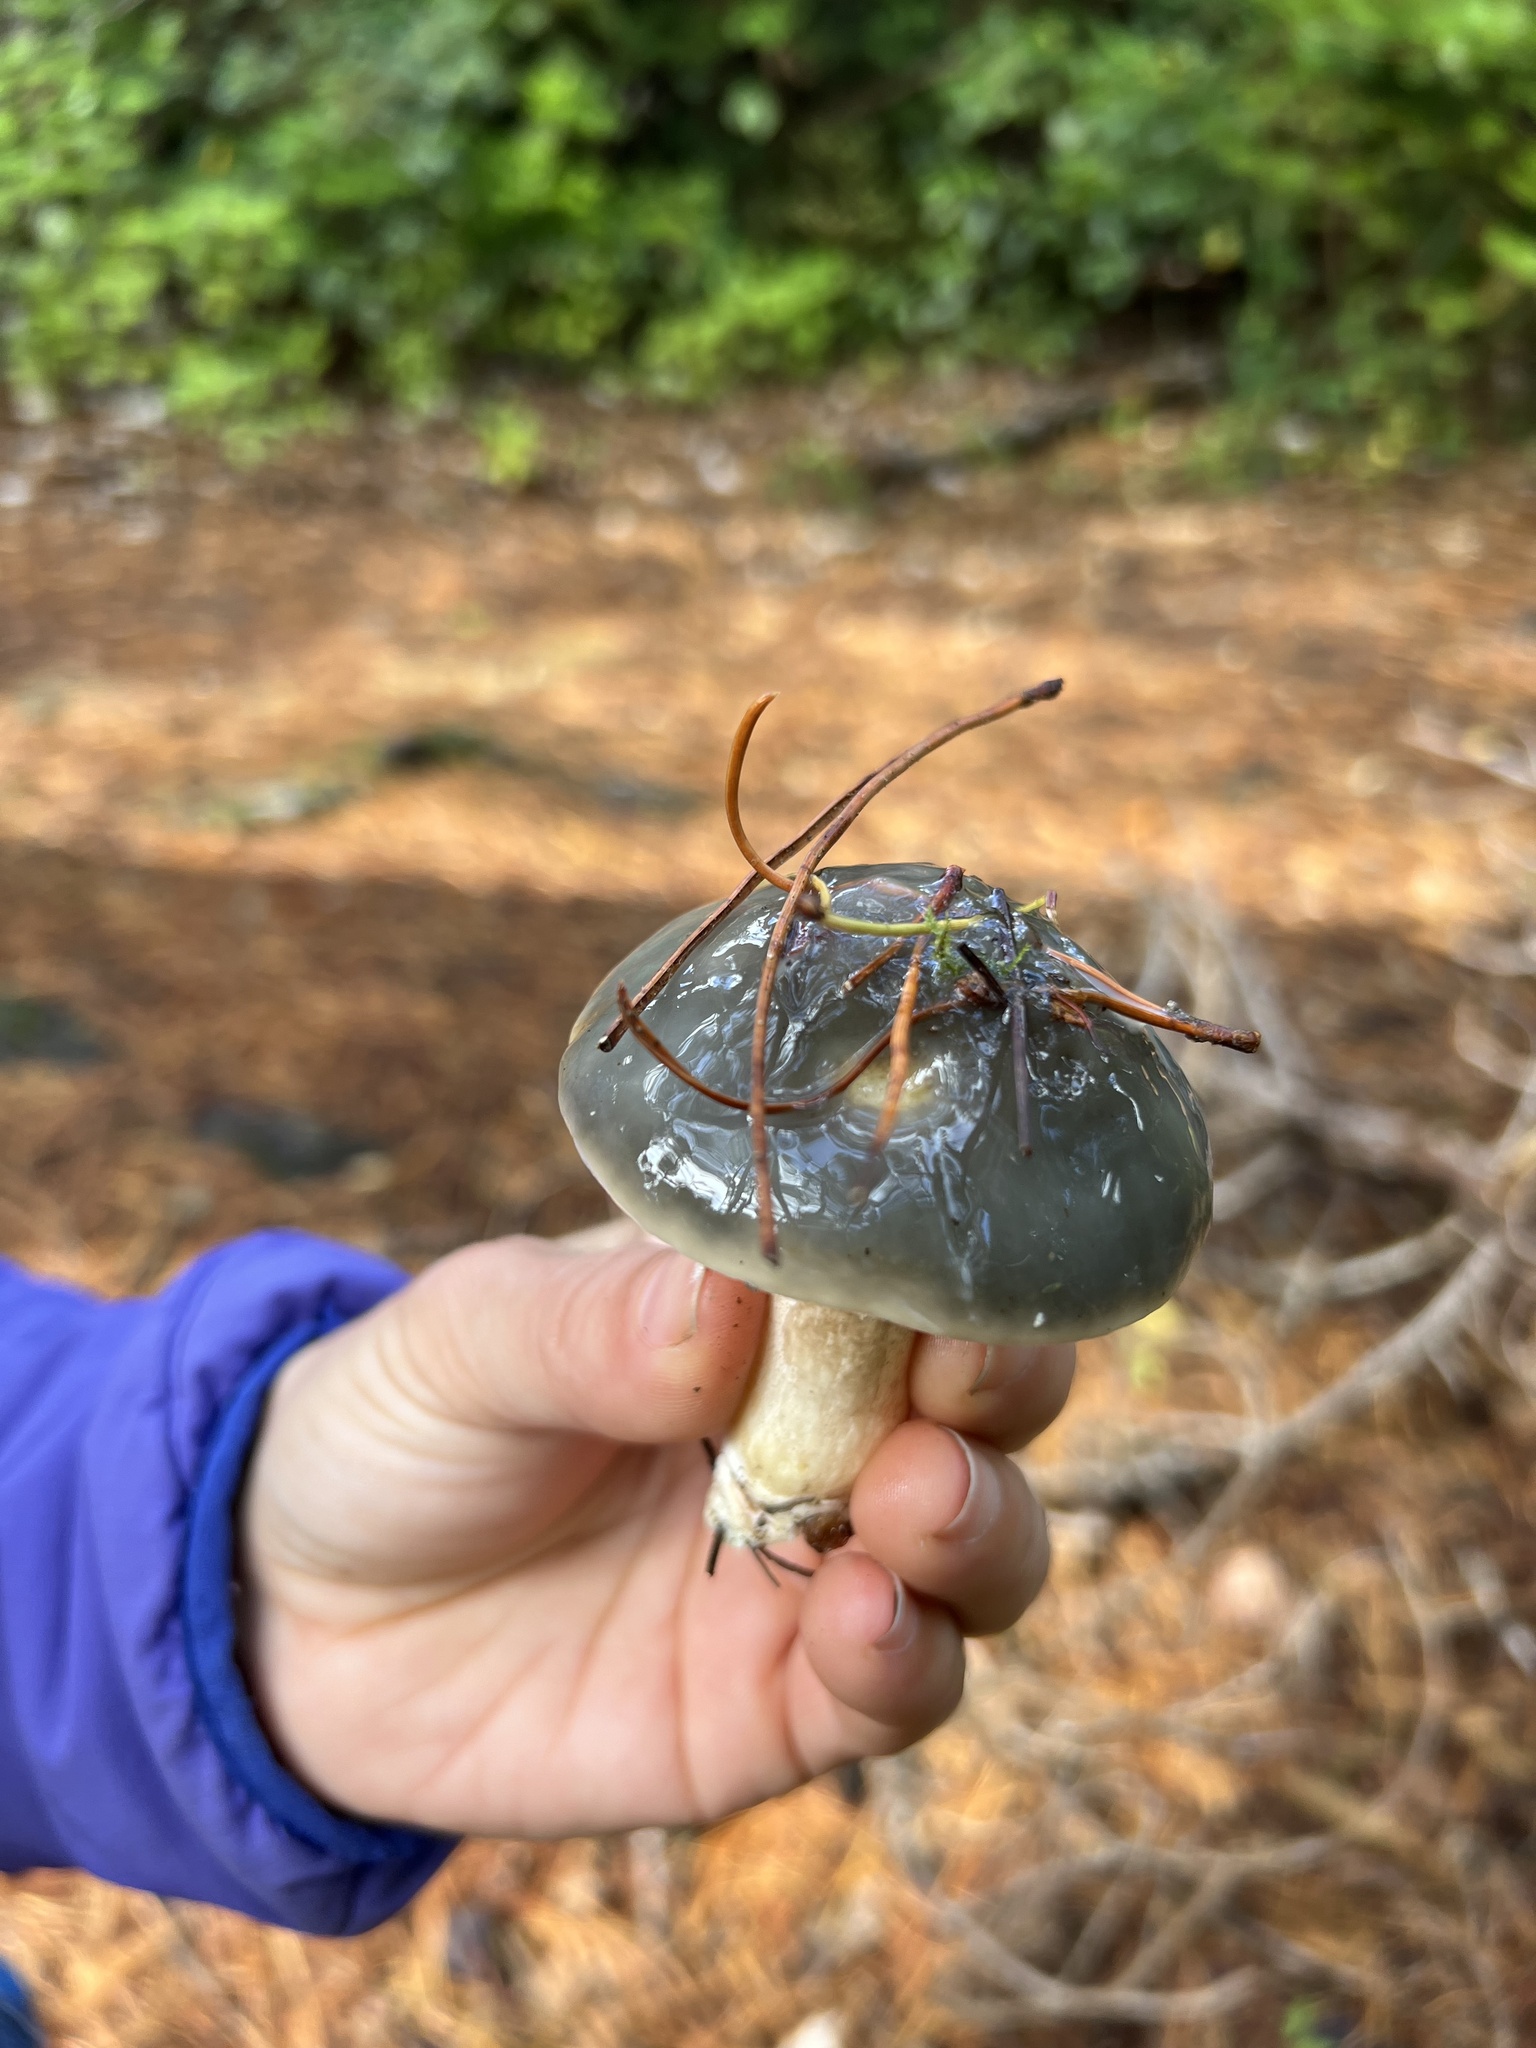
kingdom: Fungi
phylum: Basidiomycota
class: Agaricomycetes
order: Boletales
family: Suillaceae
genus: Suillus
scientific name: Suillus pungens
